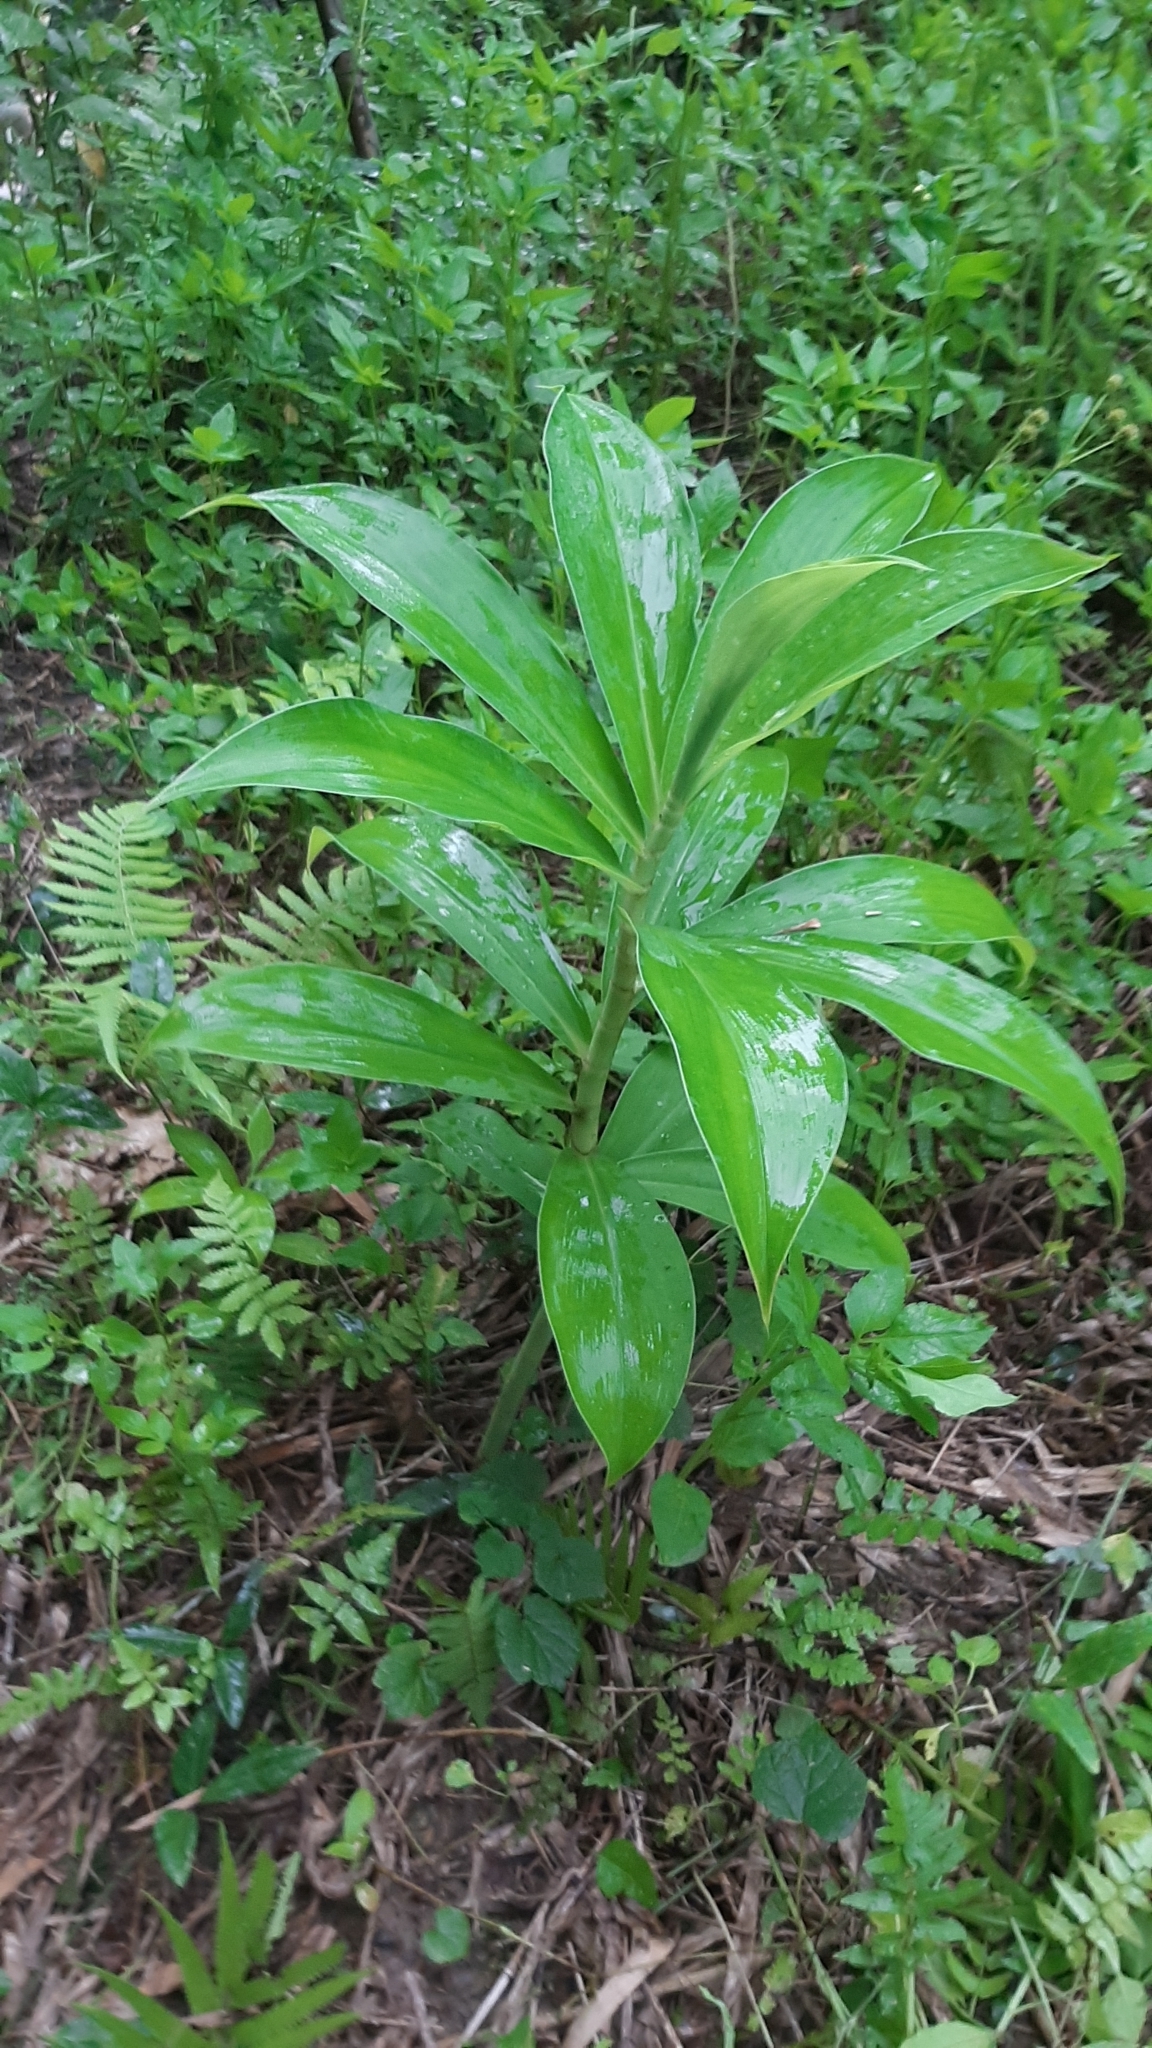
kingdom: Plantae
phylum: Tracheophyta
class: Liliopsida
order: Zingiberales
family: Costaceae
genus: Hellenia
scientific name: Hellenia speciosa
